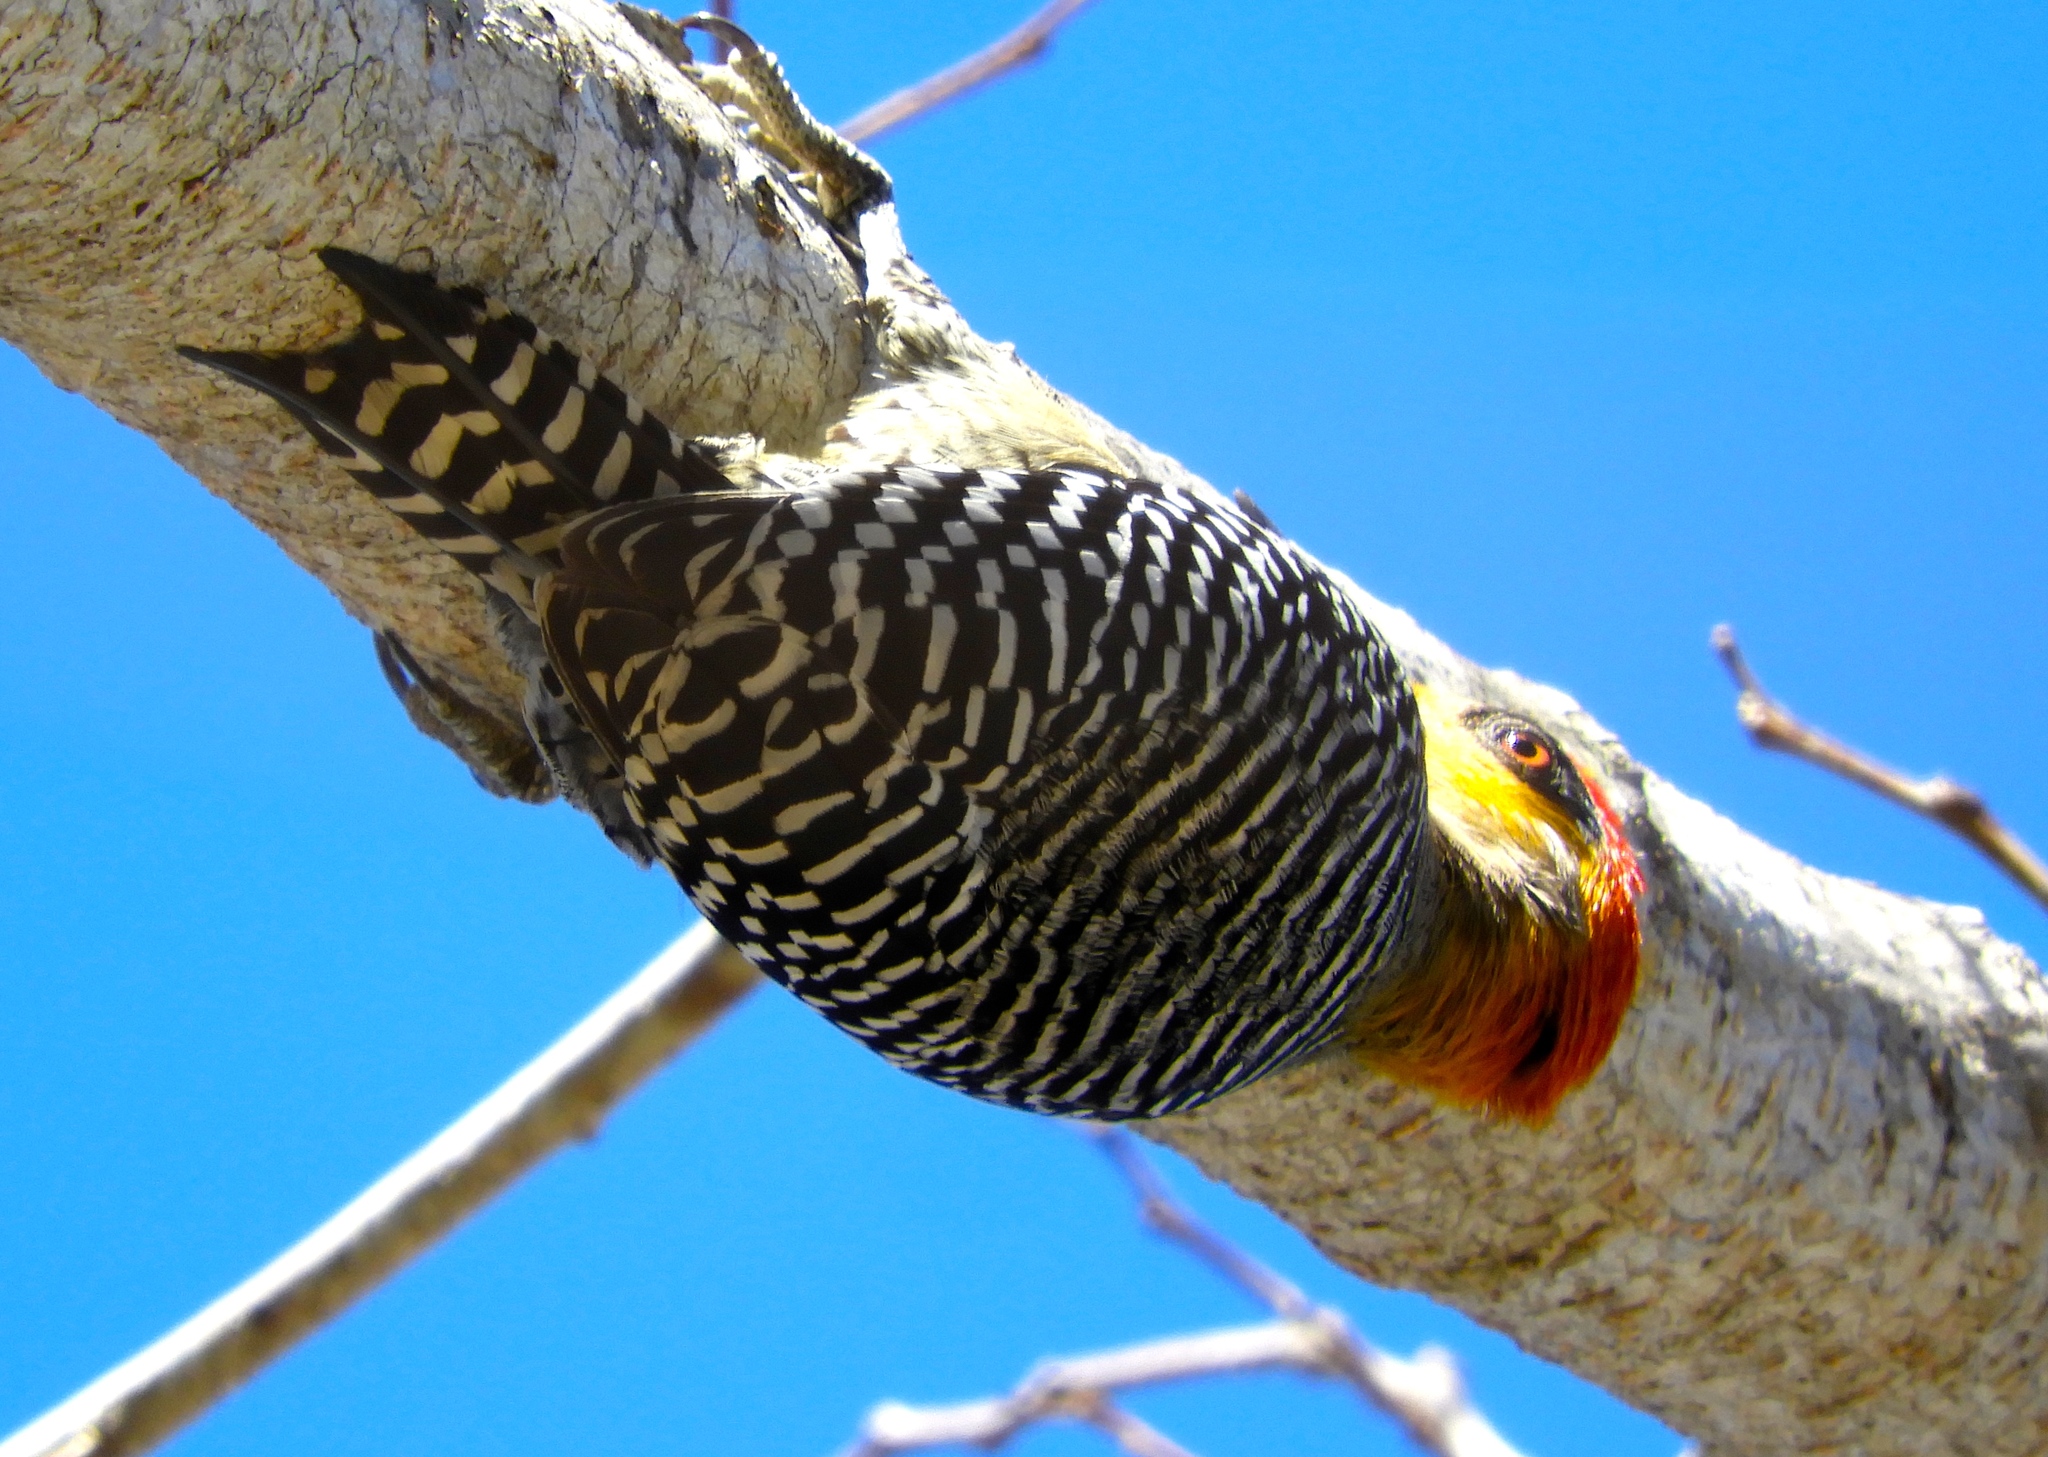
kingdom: Animalia
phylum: Chordata
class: Aves
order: Piciformes
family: Picidae
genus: Melanerpes
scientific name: Melanerpes chrysogenys
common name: Golden-cheeked woodpecker
